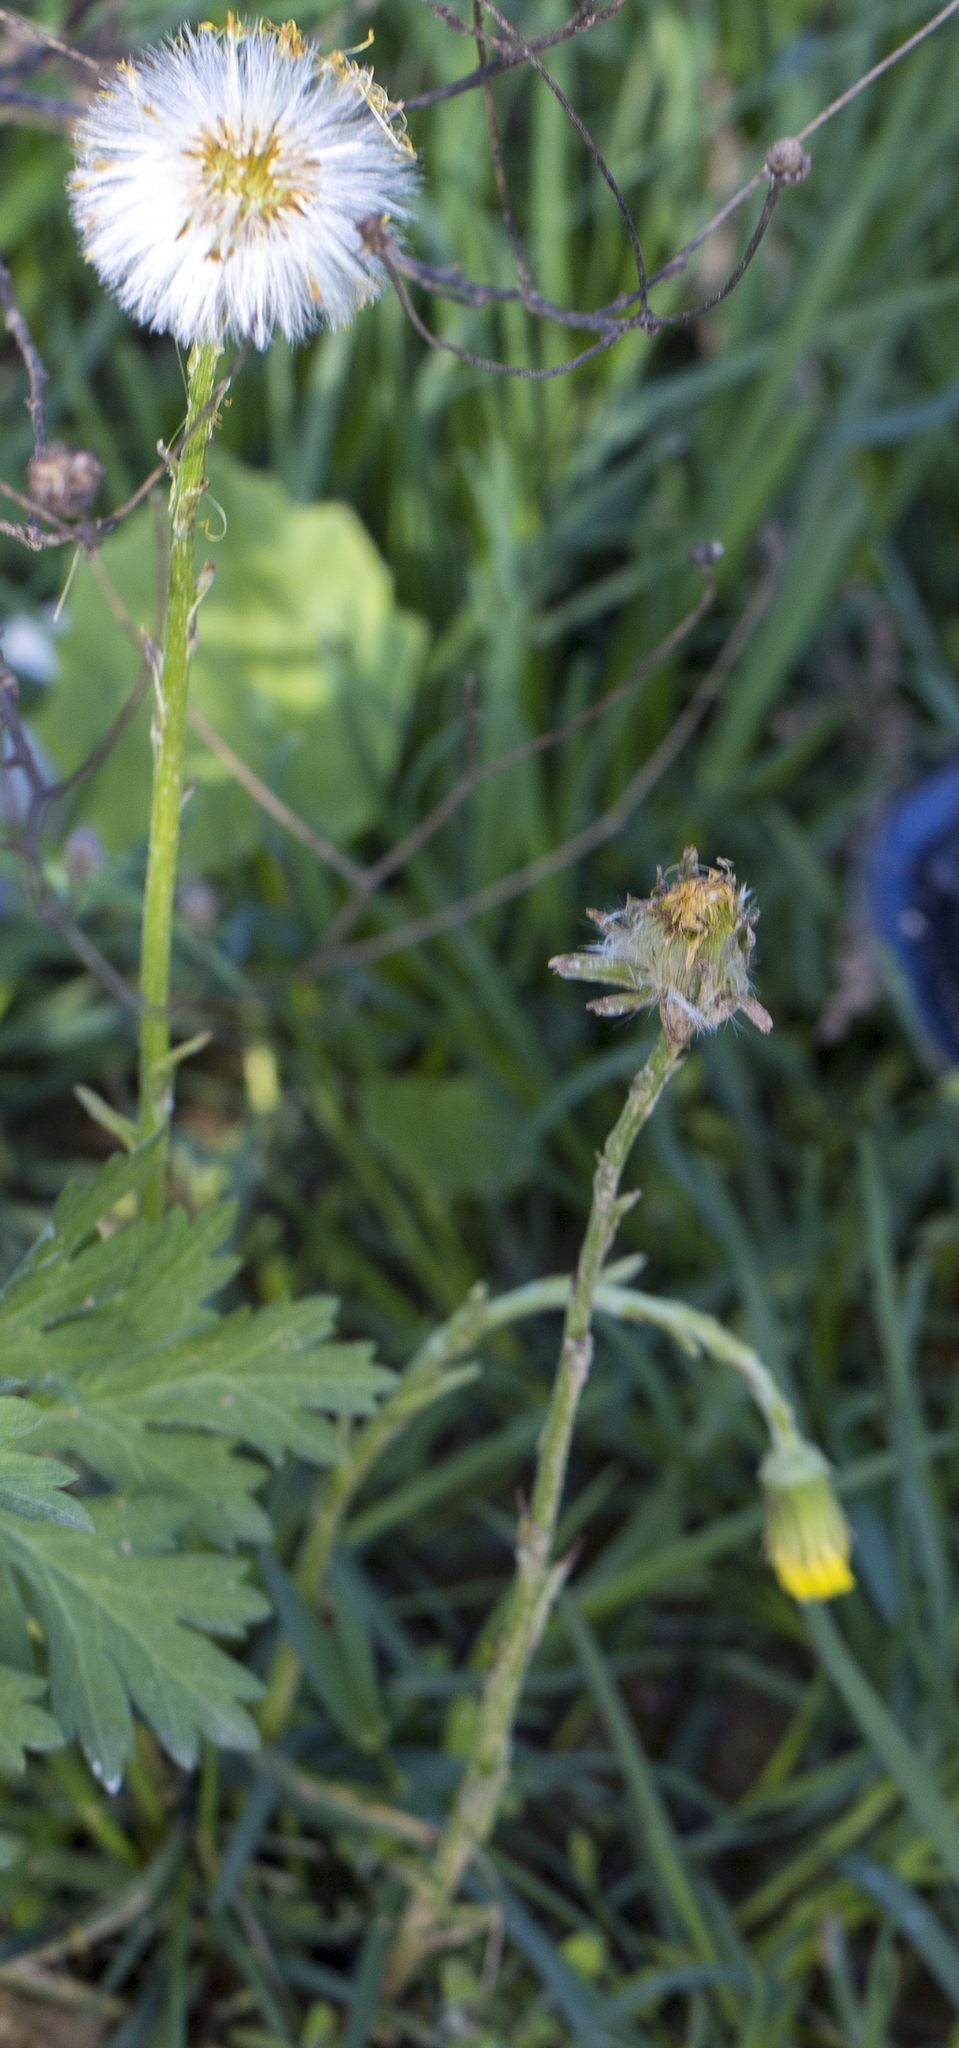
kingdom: Plantae
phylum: Tracheophyta
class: Magnoliopsida
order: Asterales
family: Asteraceae
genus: Tussilago
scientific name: Tussilago farfara
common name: Coltsfoot
